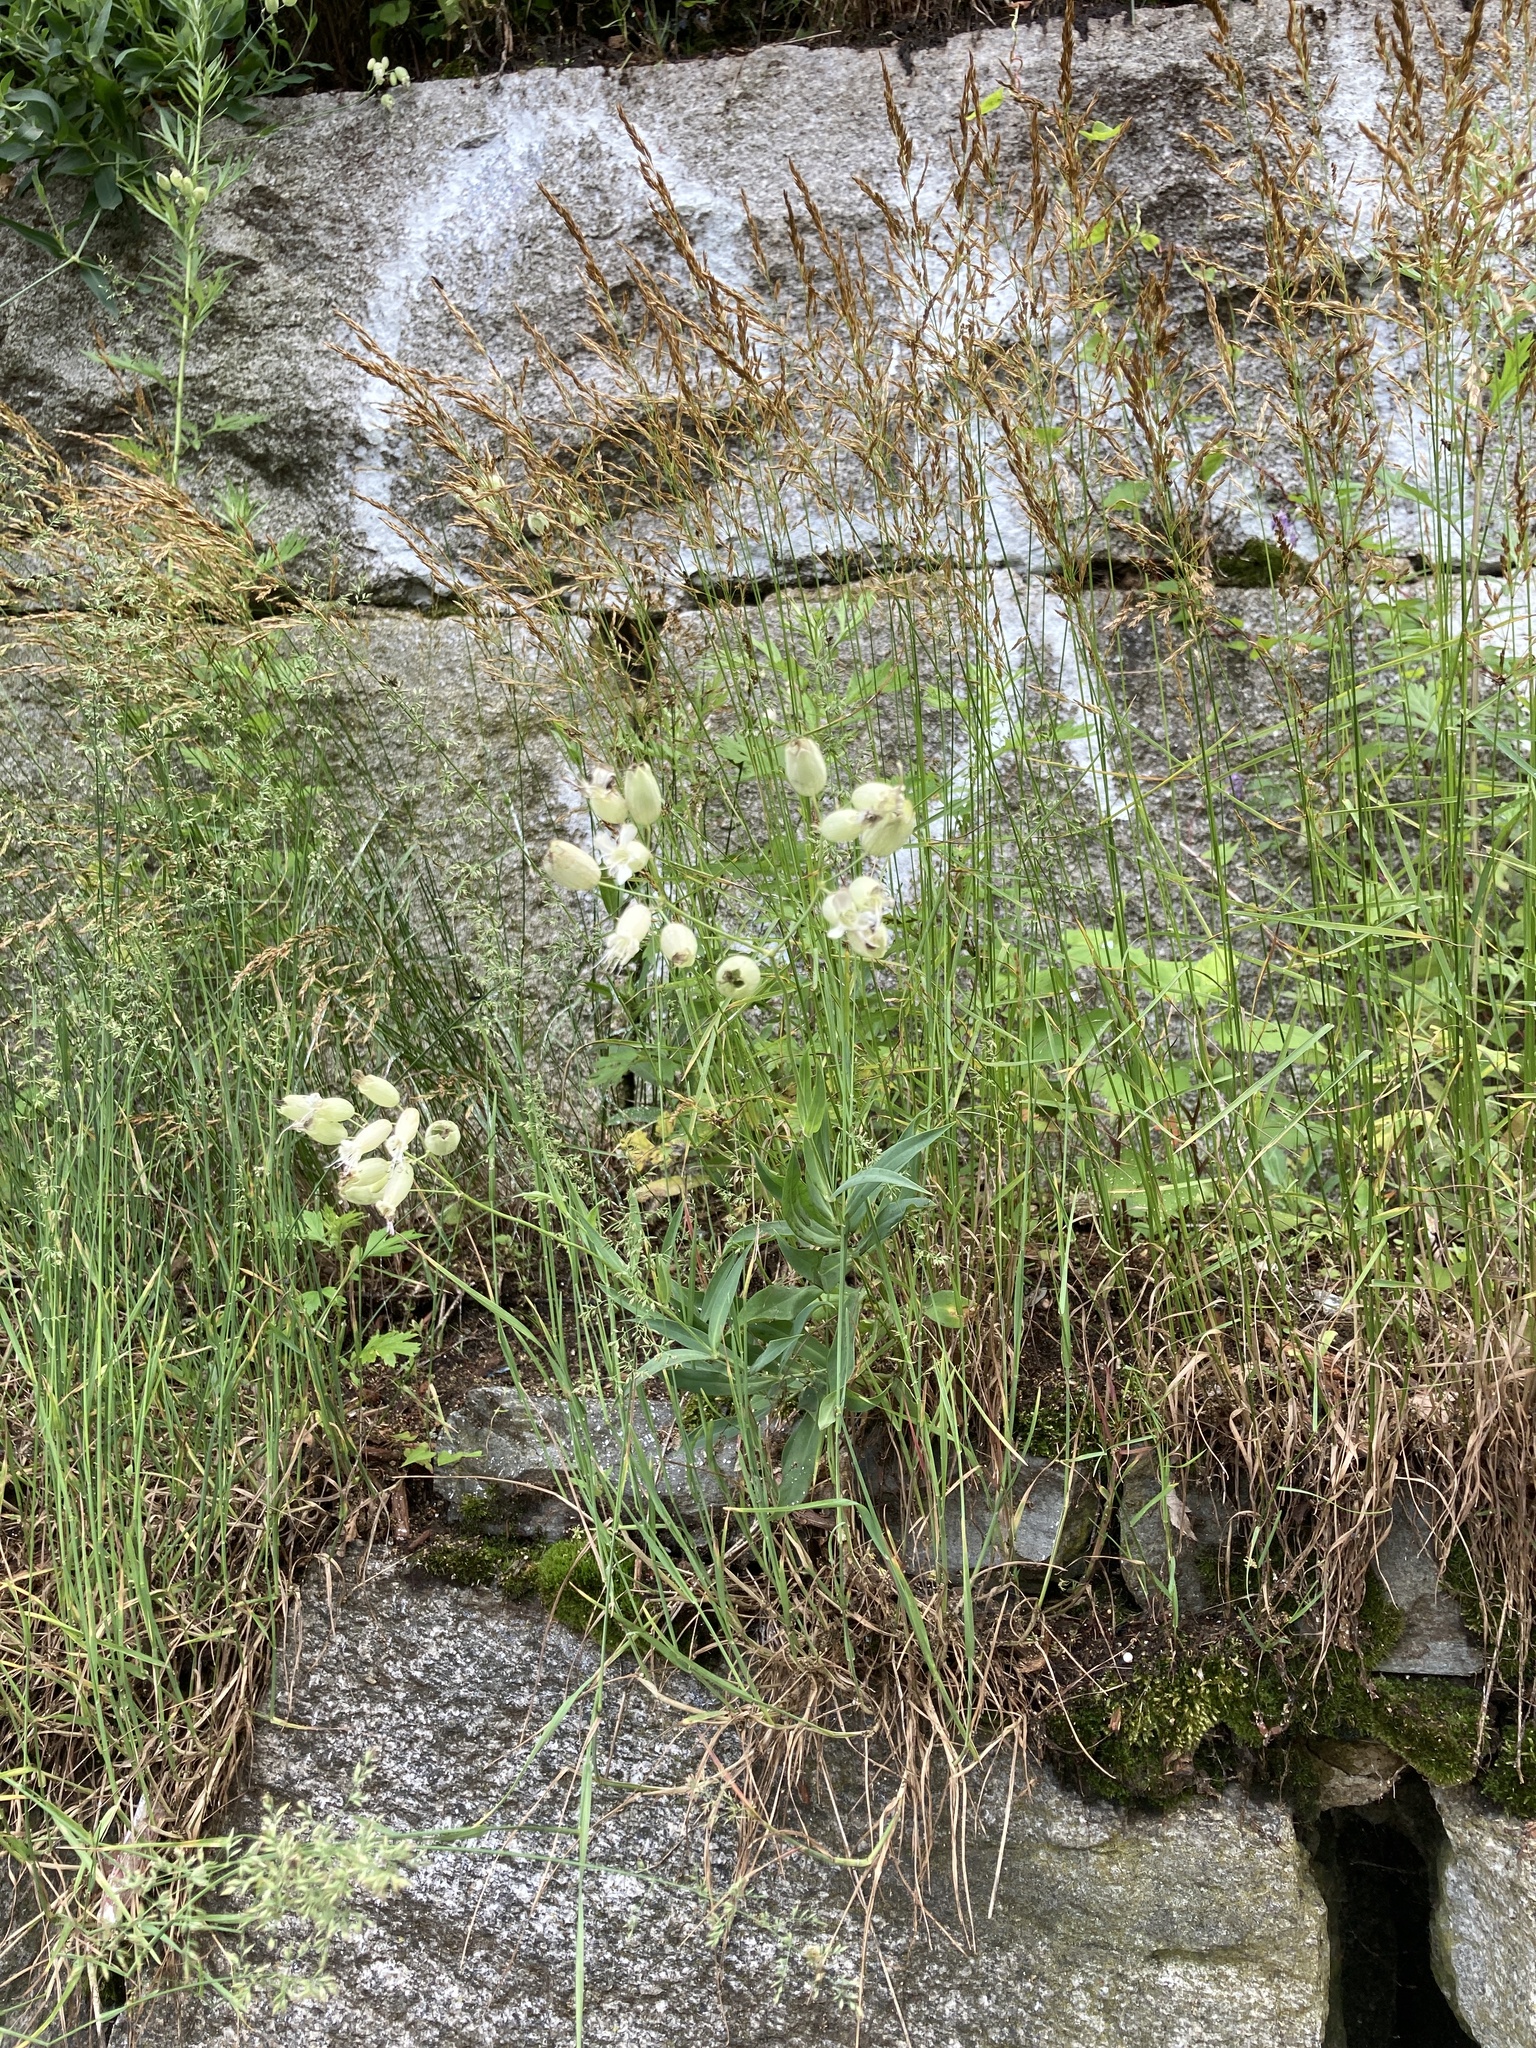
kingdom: Plantae
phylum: Tracheophyta
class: Magnoliopsida
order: Caryophyllales
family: Caryophyllaceae
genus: Silene
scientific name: Silene vulgaris
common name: Bladder campion
